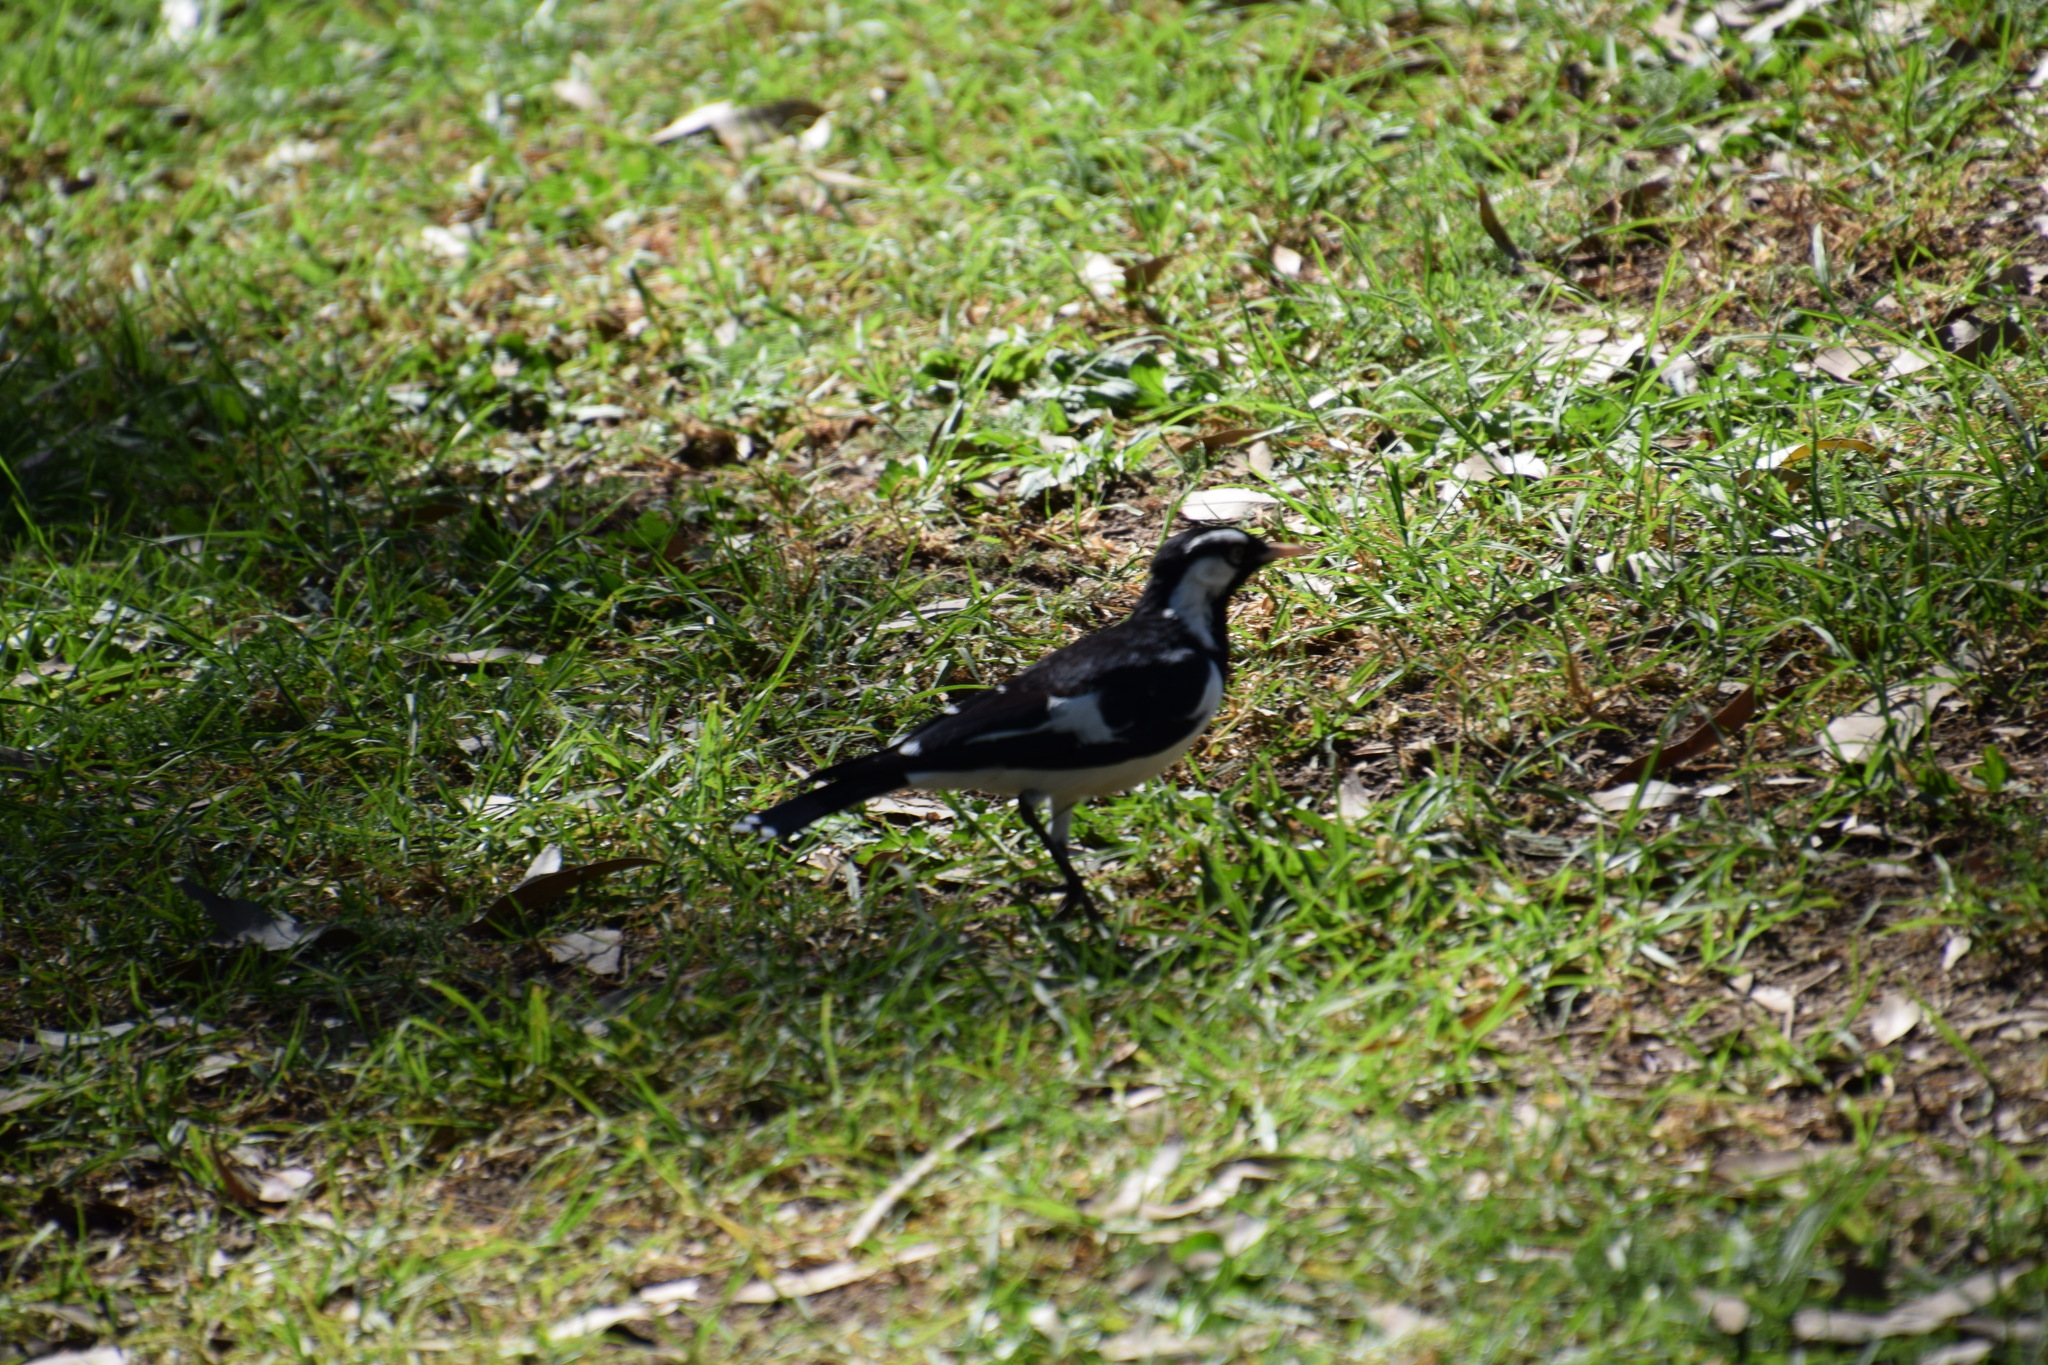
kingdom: Animalia
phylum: Chordata
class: Aves
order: Passeriformes
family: Monarchidae
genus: Grallina
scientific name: Grallina cyanoleuca
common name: Magpie-lark
